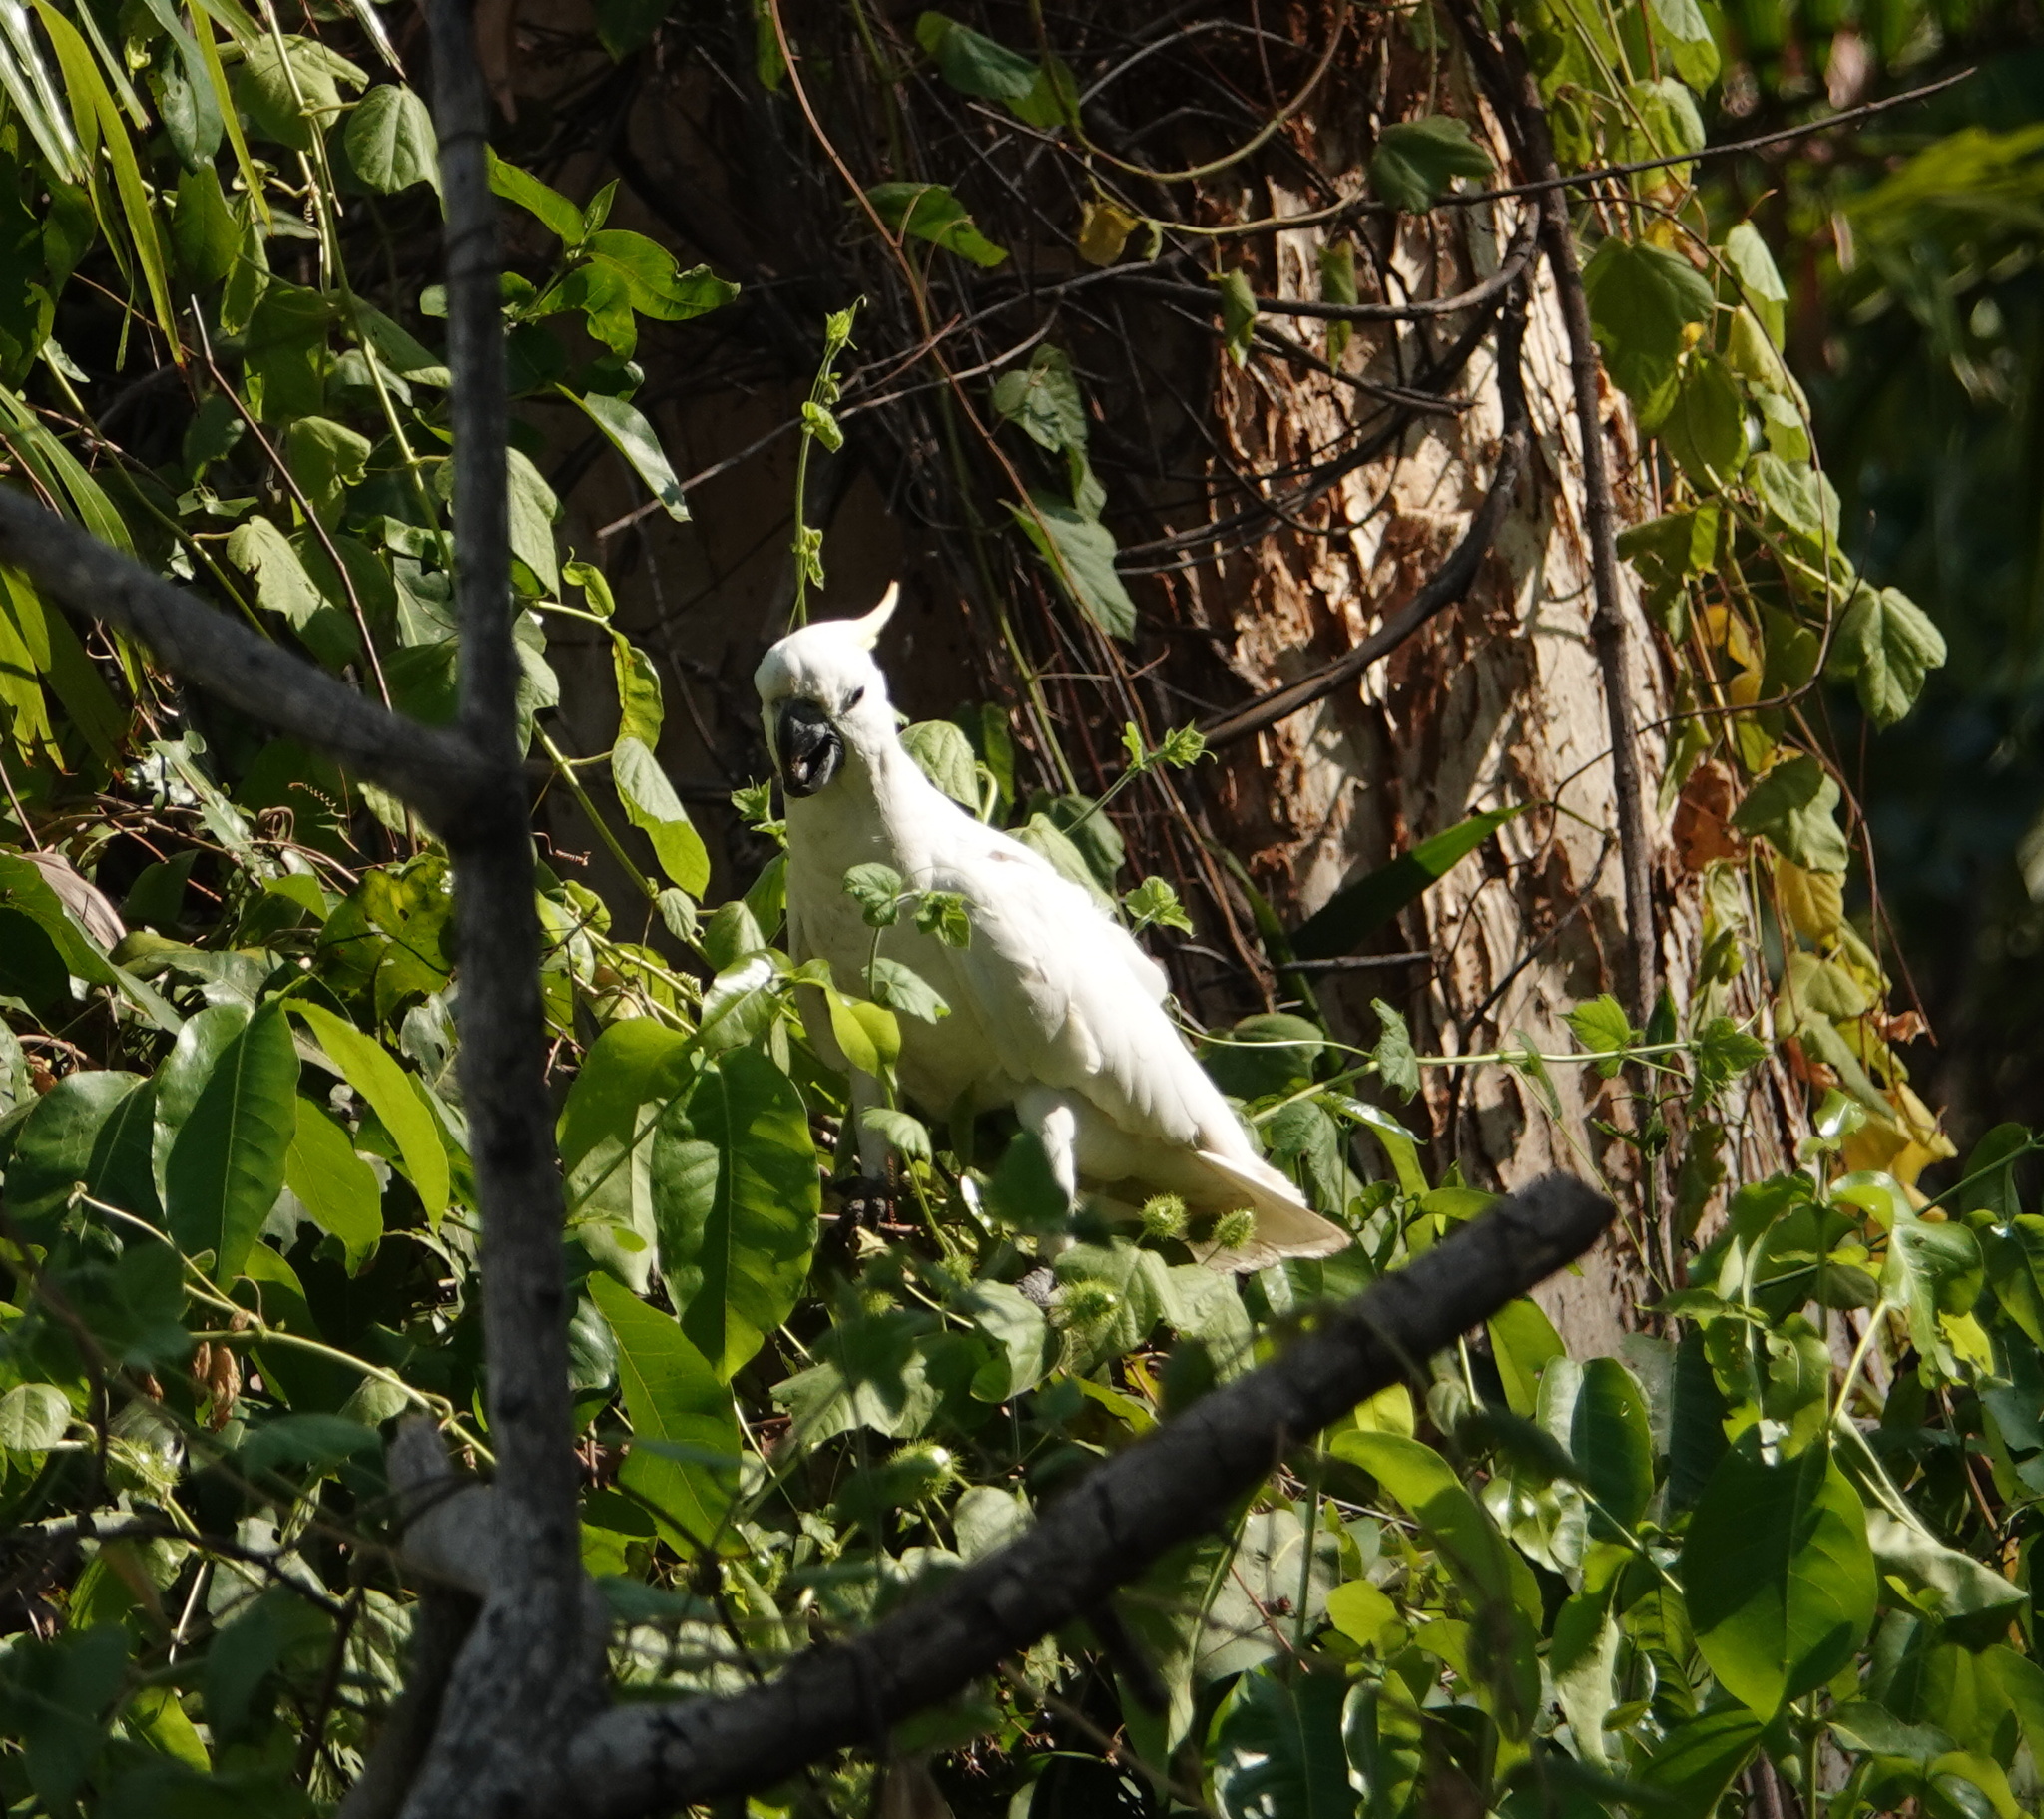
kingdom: Animalia
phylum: Chordata
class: Aves
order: Psittaciformes
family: Psittacidae
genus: Cacatua
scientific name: Cacatua galerita
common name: Sulphur-crested cockatoo
